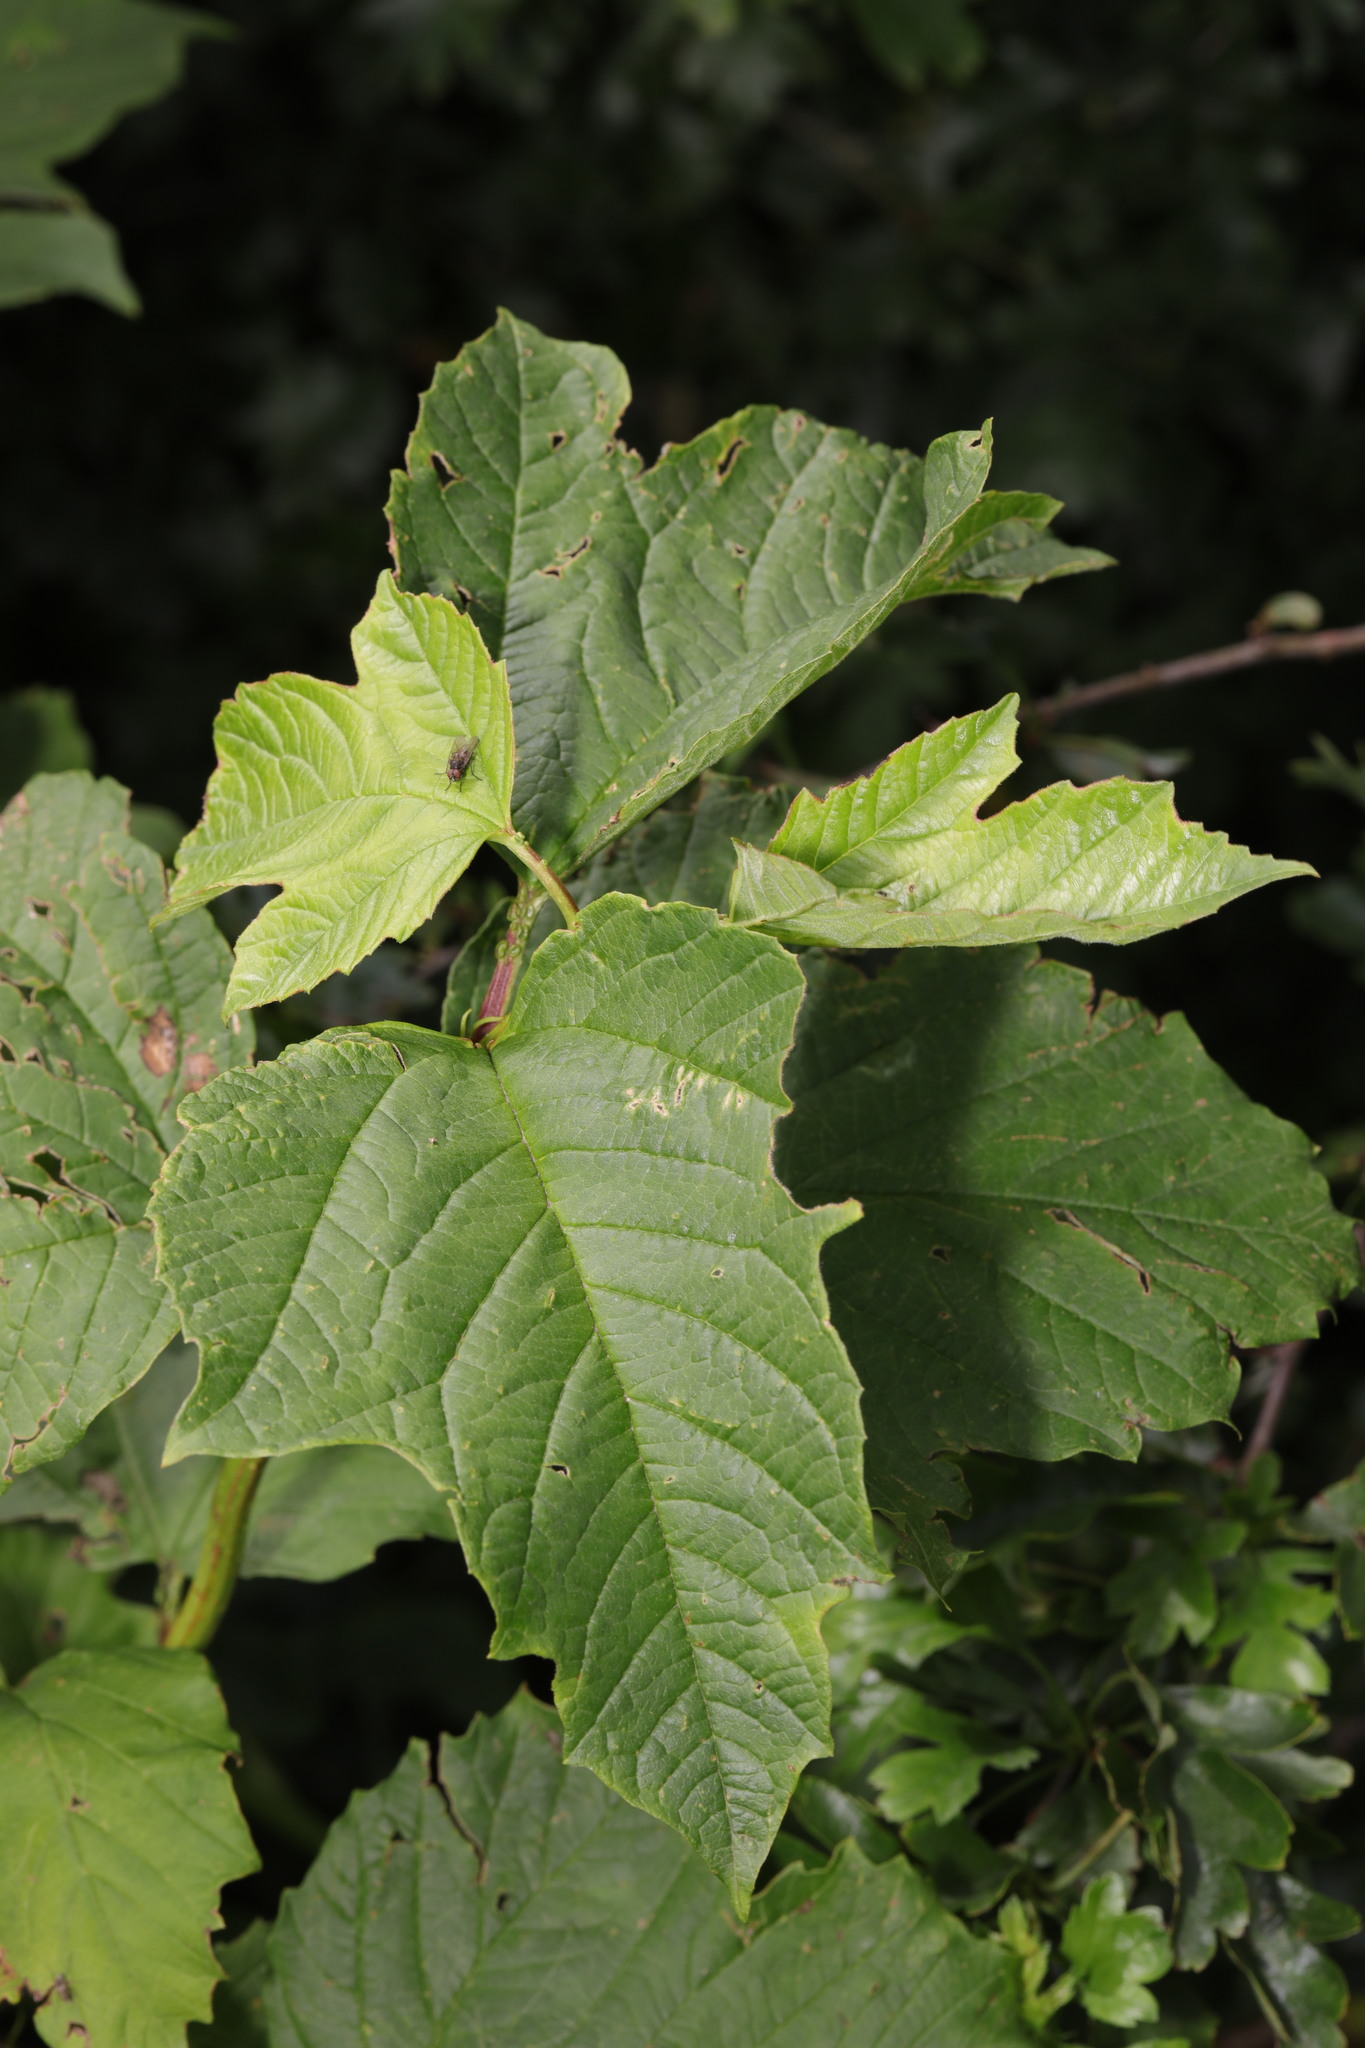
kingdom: Plantae
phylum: Tracheophyta
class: Magnoliopsida
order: Dipsacales
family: Viburnaceae
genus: Viburnum
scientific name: Viburnum opulus
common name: Guelder-rose
